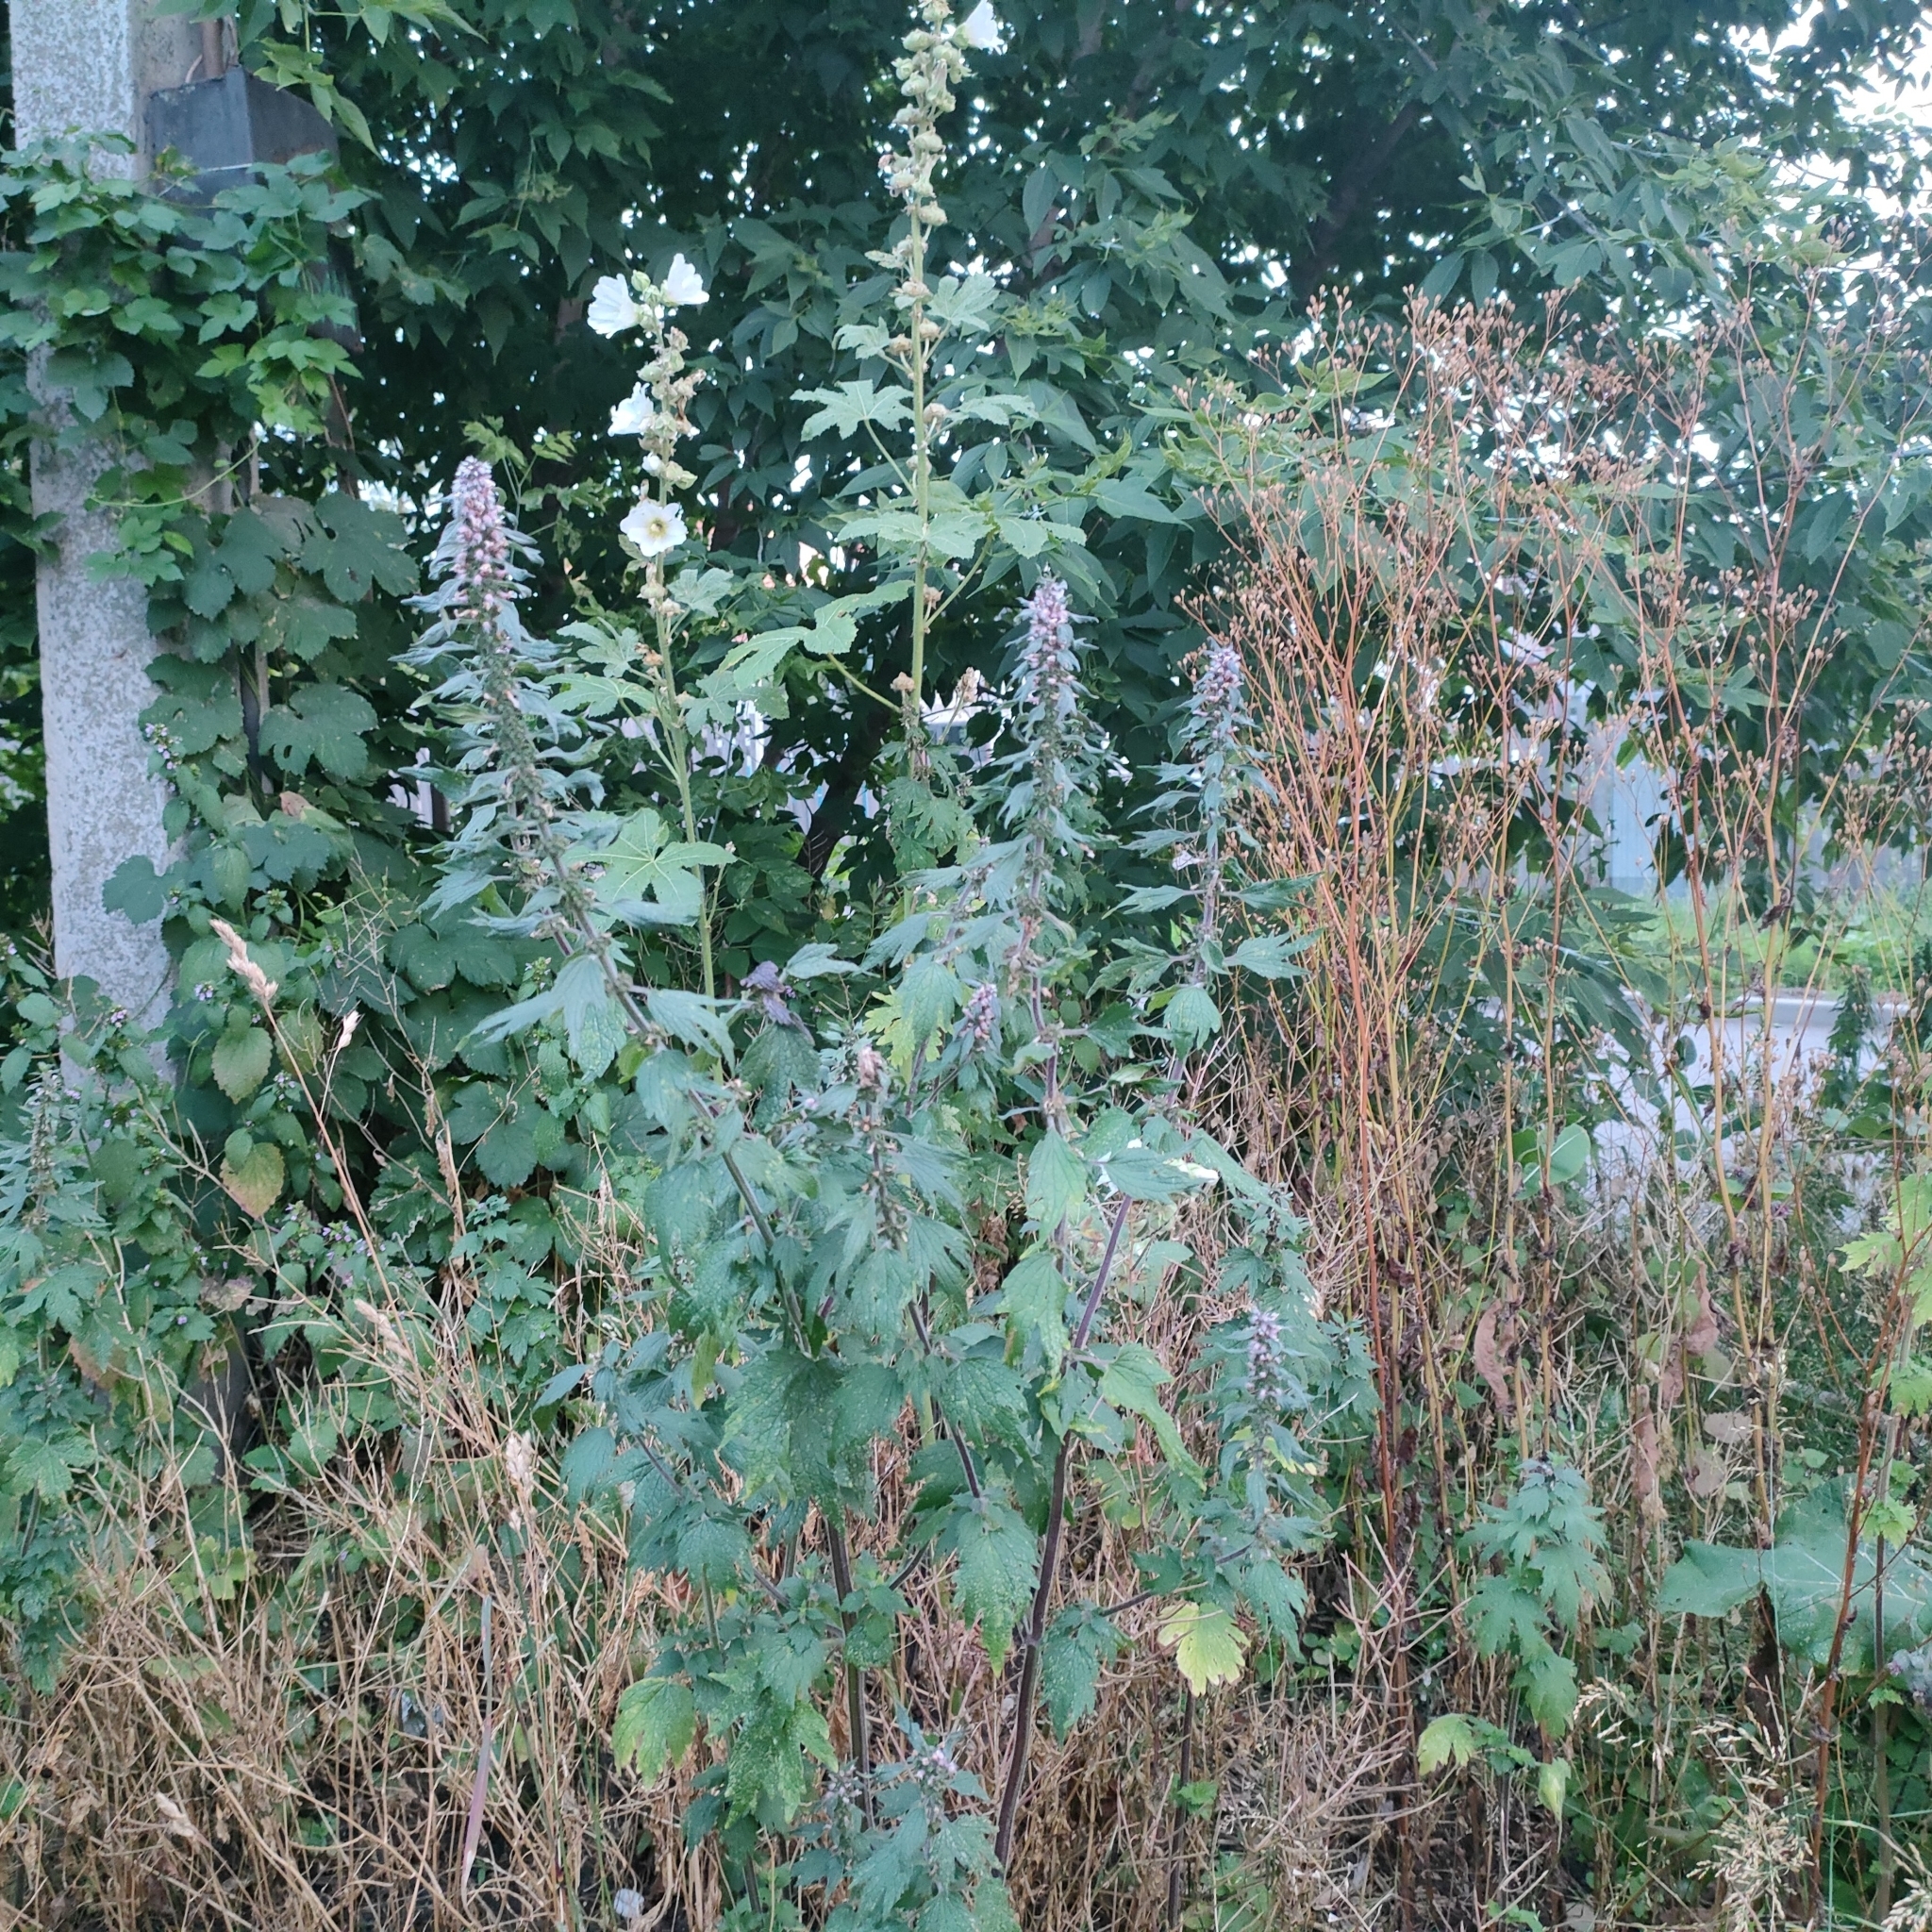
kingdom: Plantae
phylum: Tracheophyta
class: Magnoliopsida
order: Lamiales
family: Lamiaceae
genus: Leonurus
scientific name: Leonurus quinquelobatus
